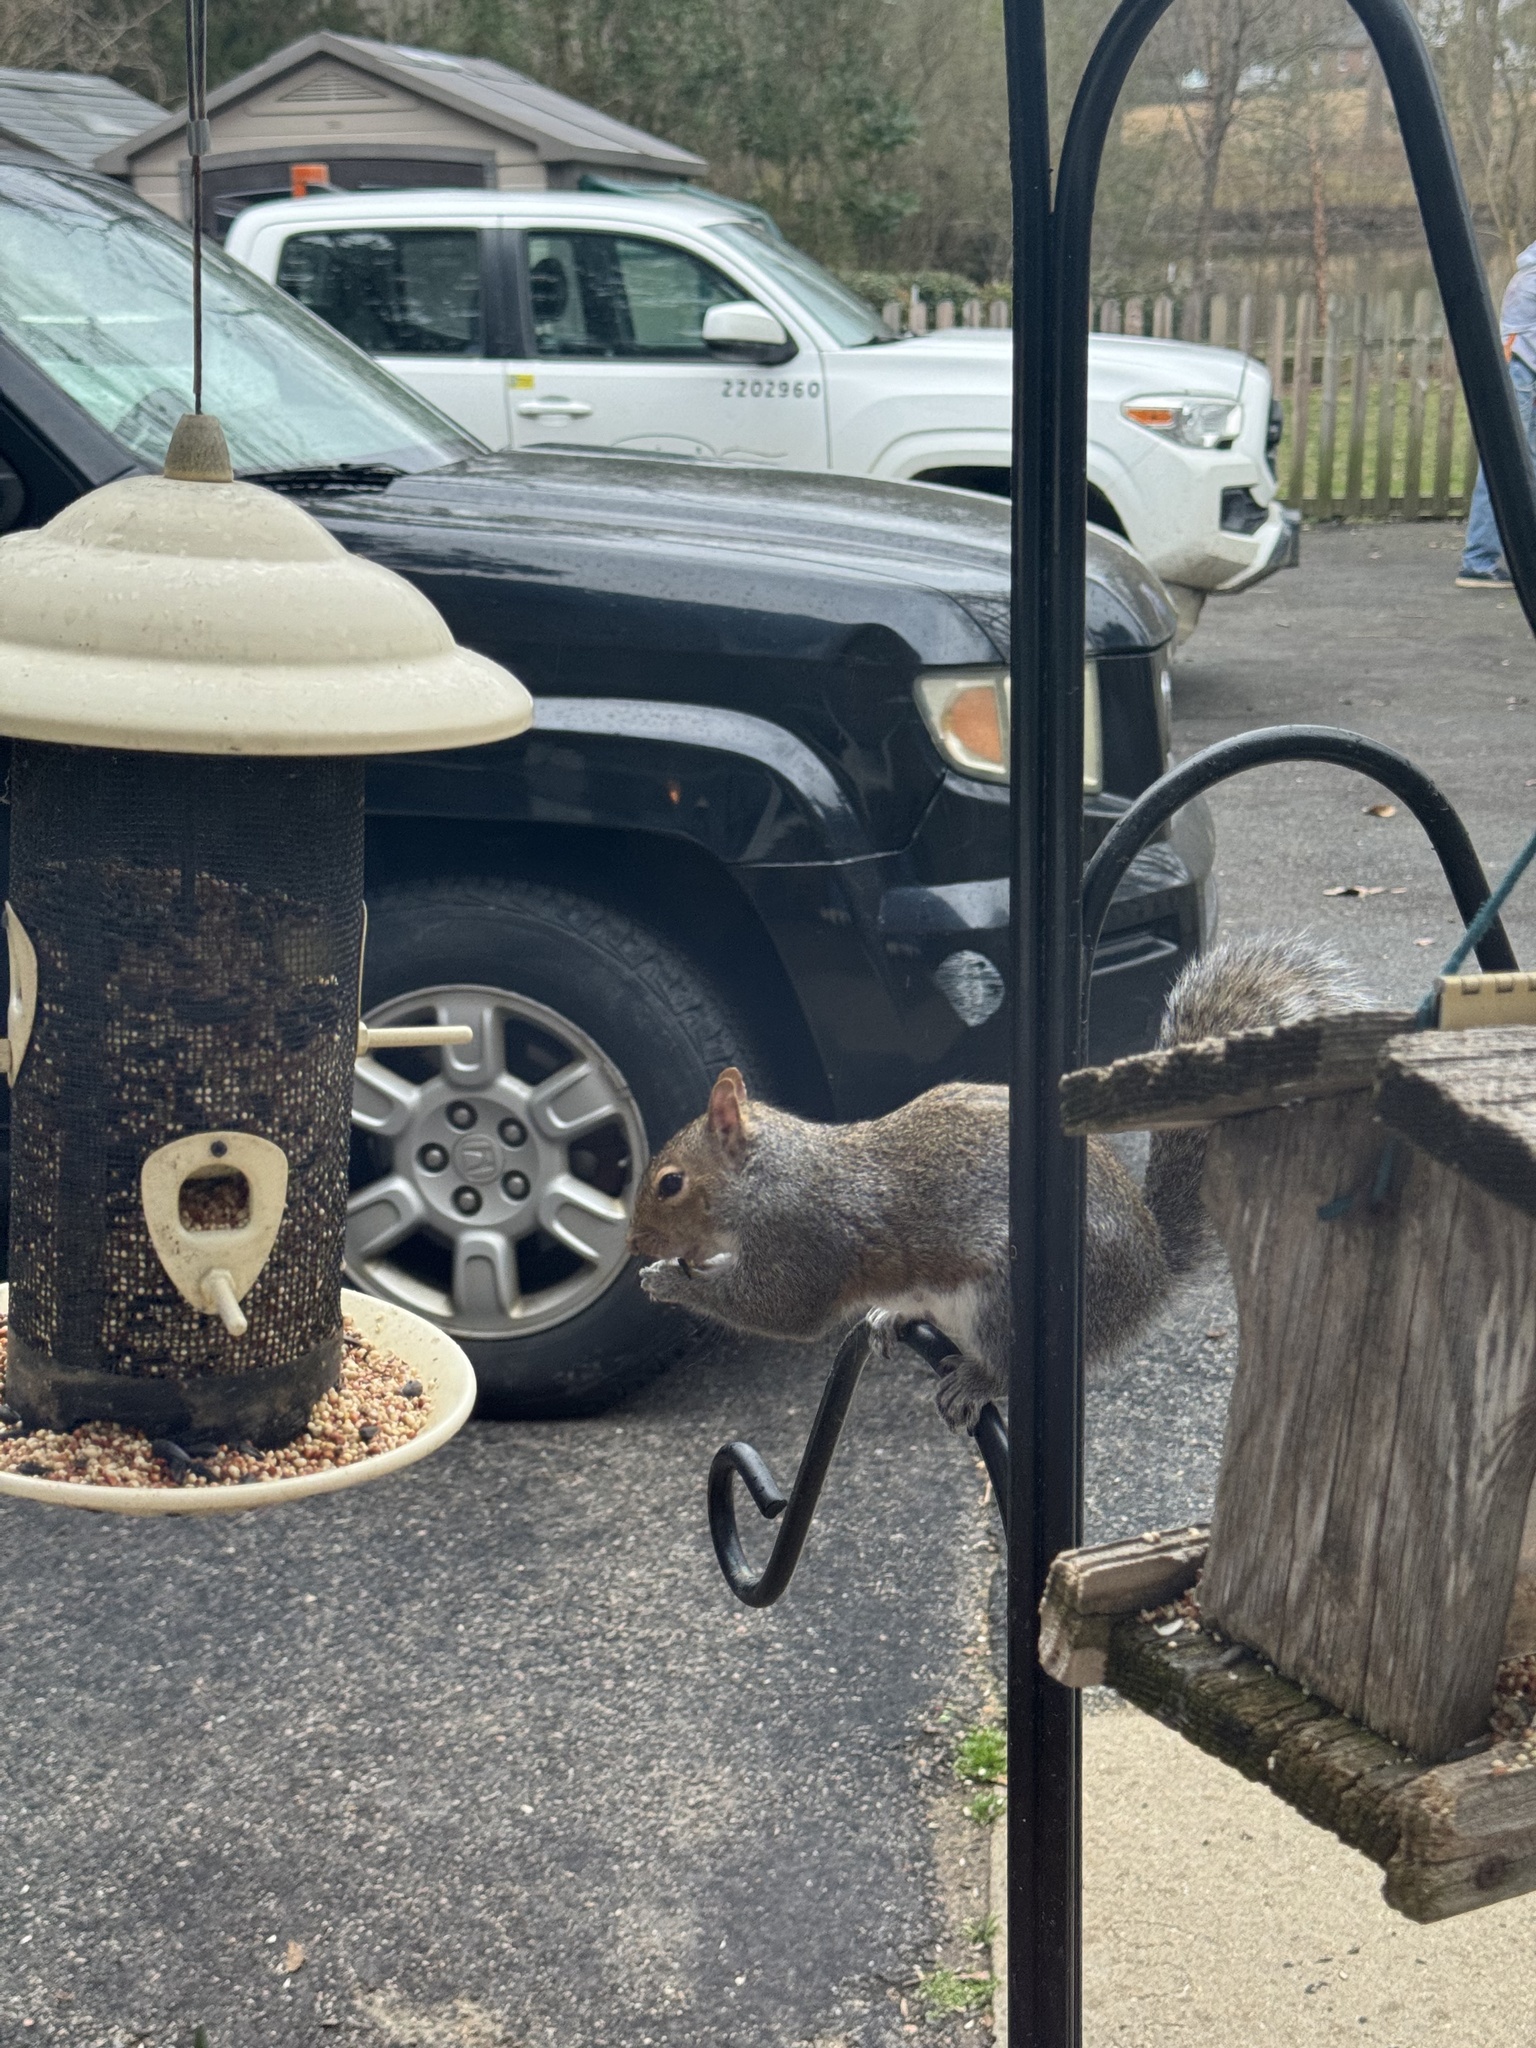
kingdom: Animalia
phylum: Chordata
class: Mammalia
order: Rodentia
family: Sciuridae
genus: Sciurus
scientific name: Sciurus carolinensis
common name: Eastern gray squirrel
